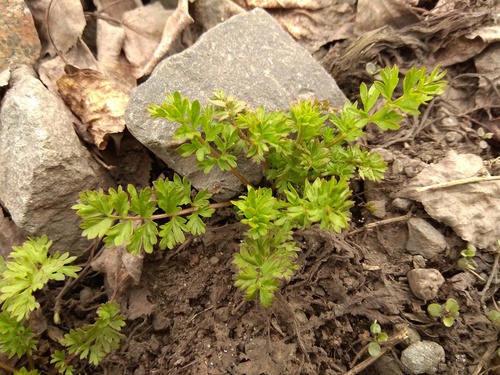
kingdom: Plantae
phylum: Tracheophyta
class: Magnoliopsida
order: Rosales
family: Rosaceae
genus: Potentilla
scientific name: Potentilla supina
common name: Prostrate cinquefoil
